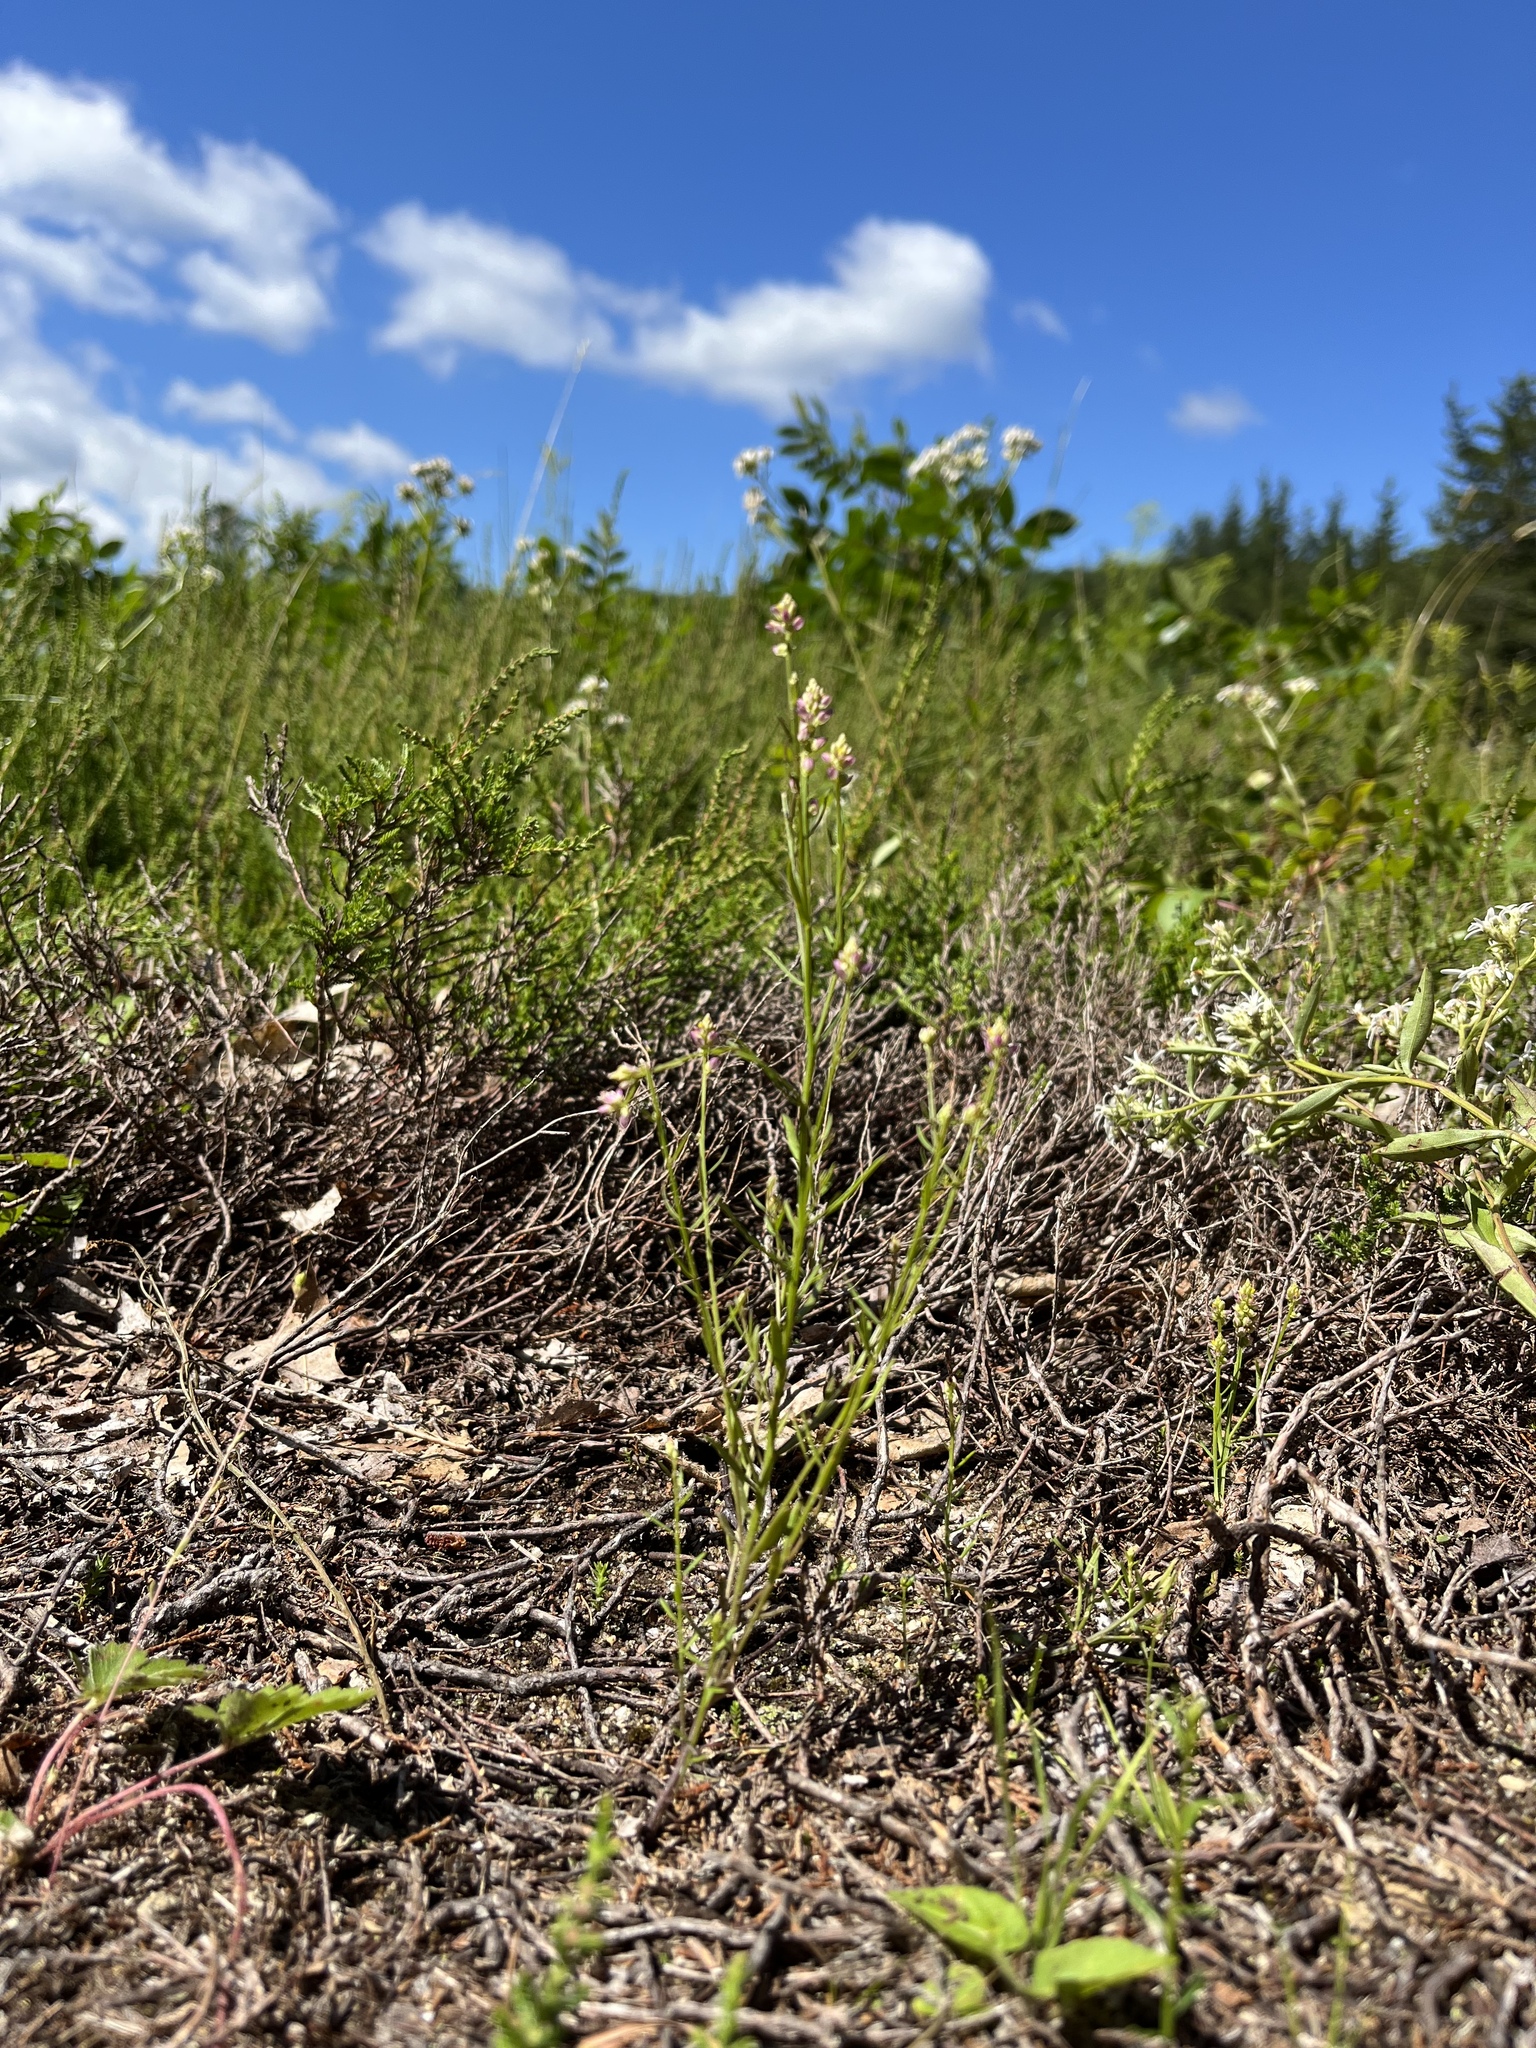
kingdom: Plantae
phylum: Tracheophyta
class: Magnoliopsida
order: Fabales
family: Polygalaceae
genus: Polygala
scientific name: Polygala nuttallii
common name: Nuttall's milkwort
